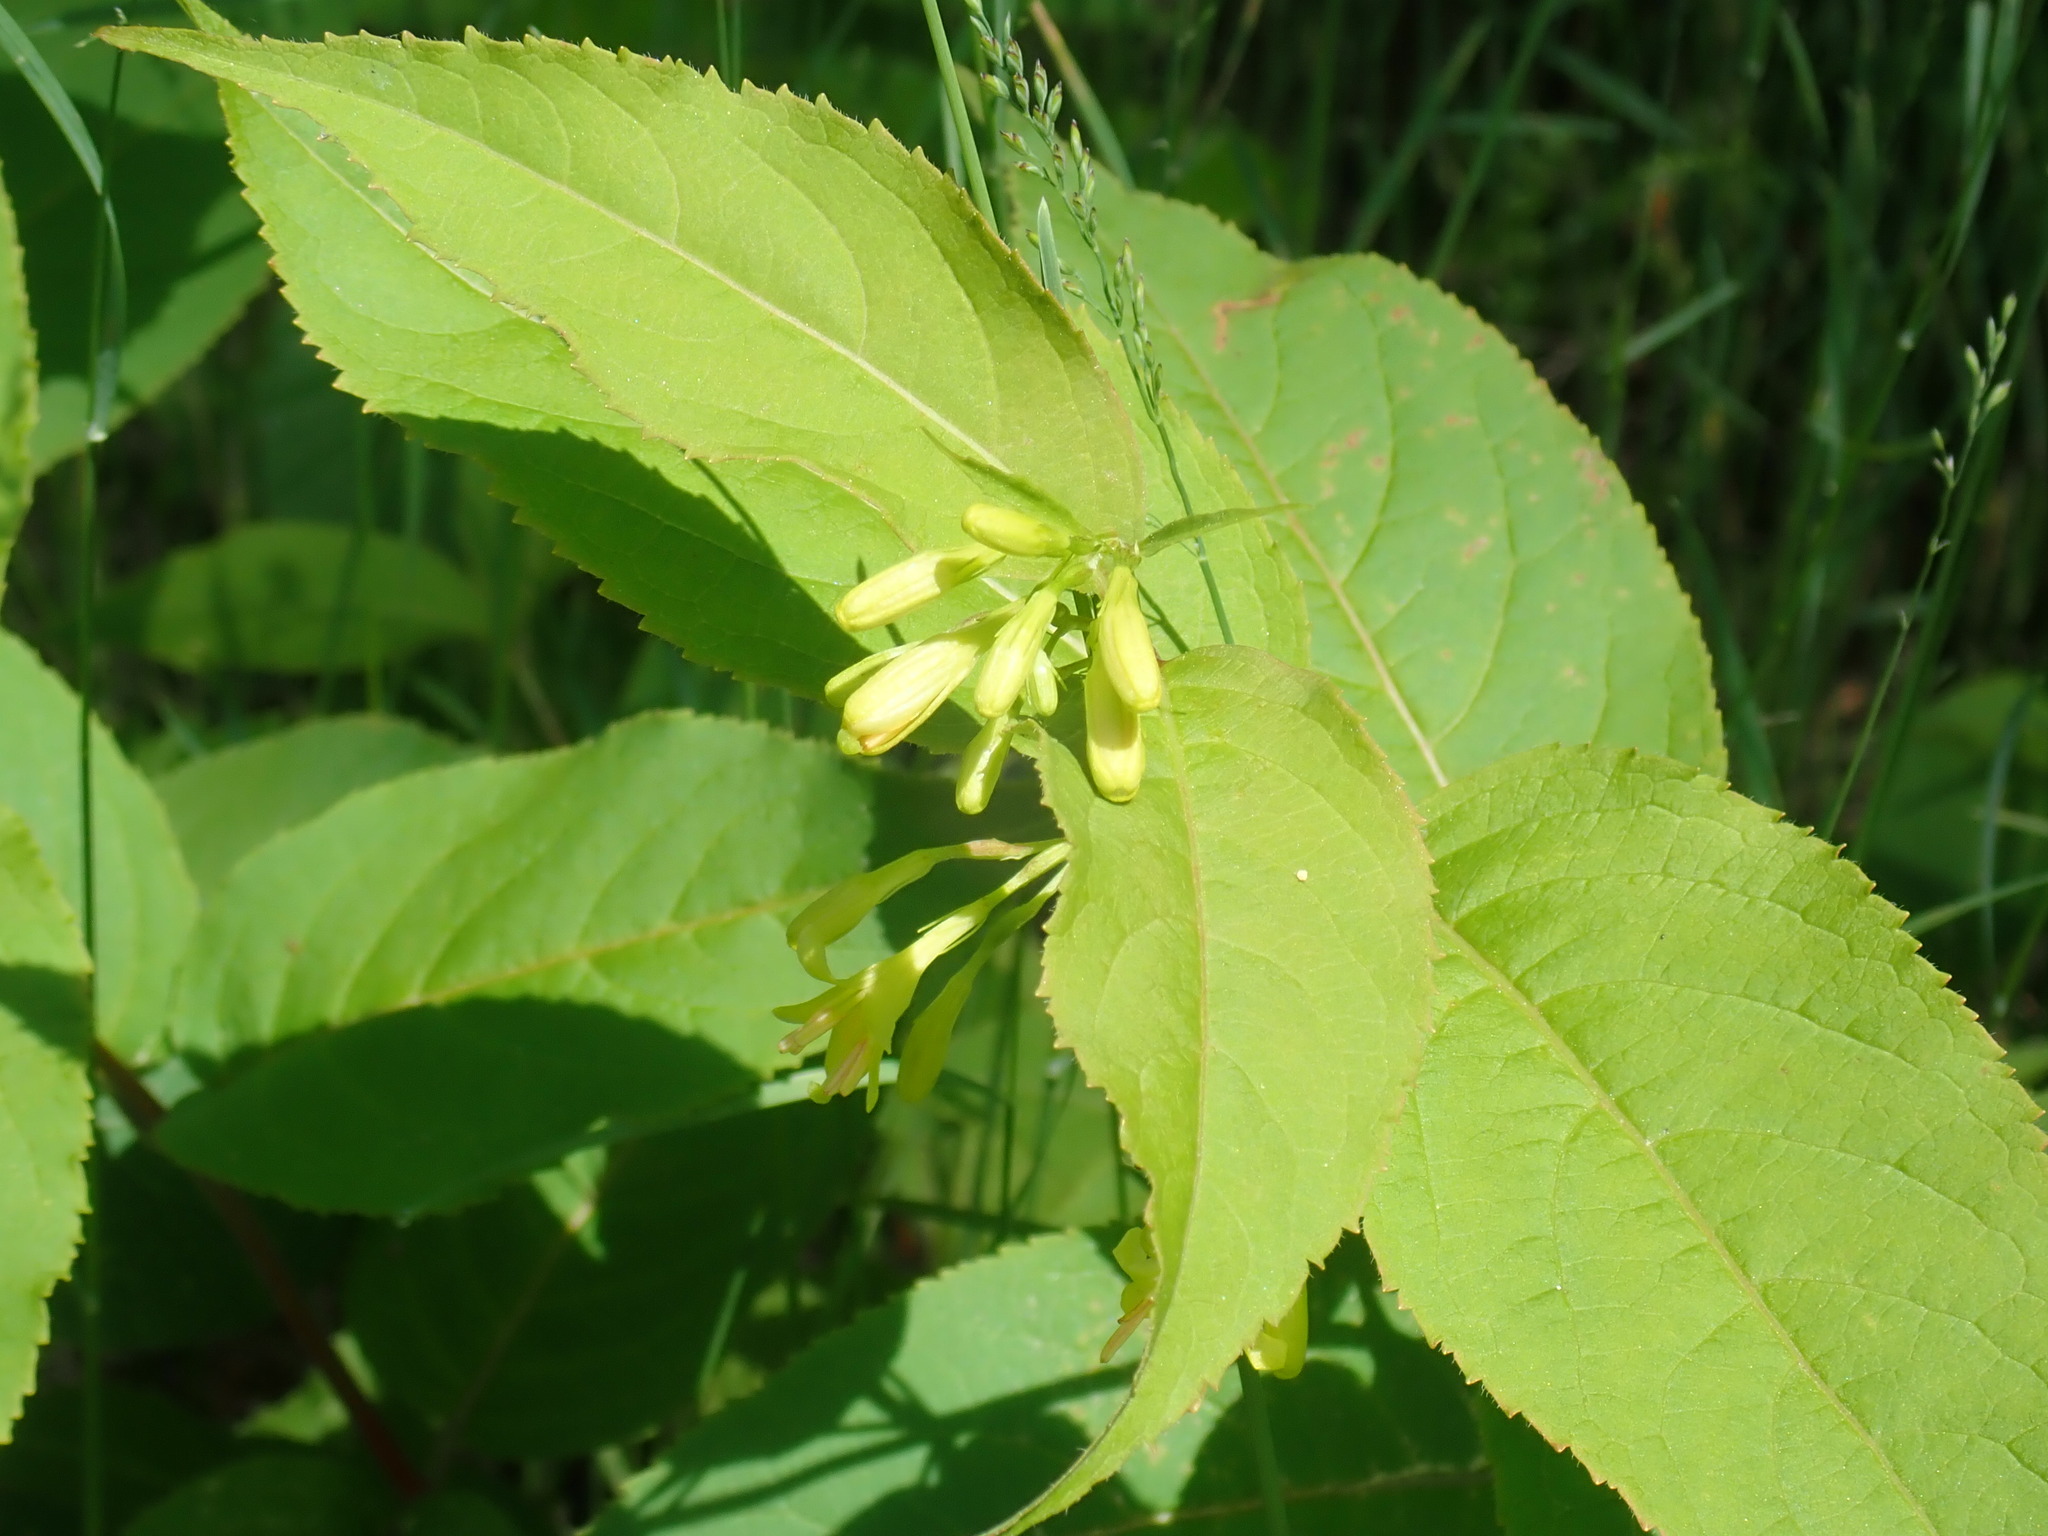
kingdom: Plantae
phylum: Tracheophyta
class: Magnoliopsida
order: Dipsacales
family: Caprifoliaceae
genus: Diervilla
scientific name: Diervilla lonicera
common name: Bush-honeysuckle
